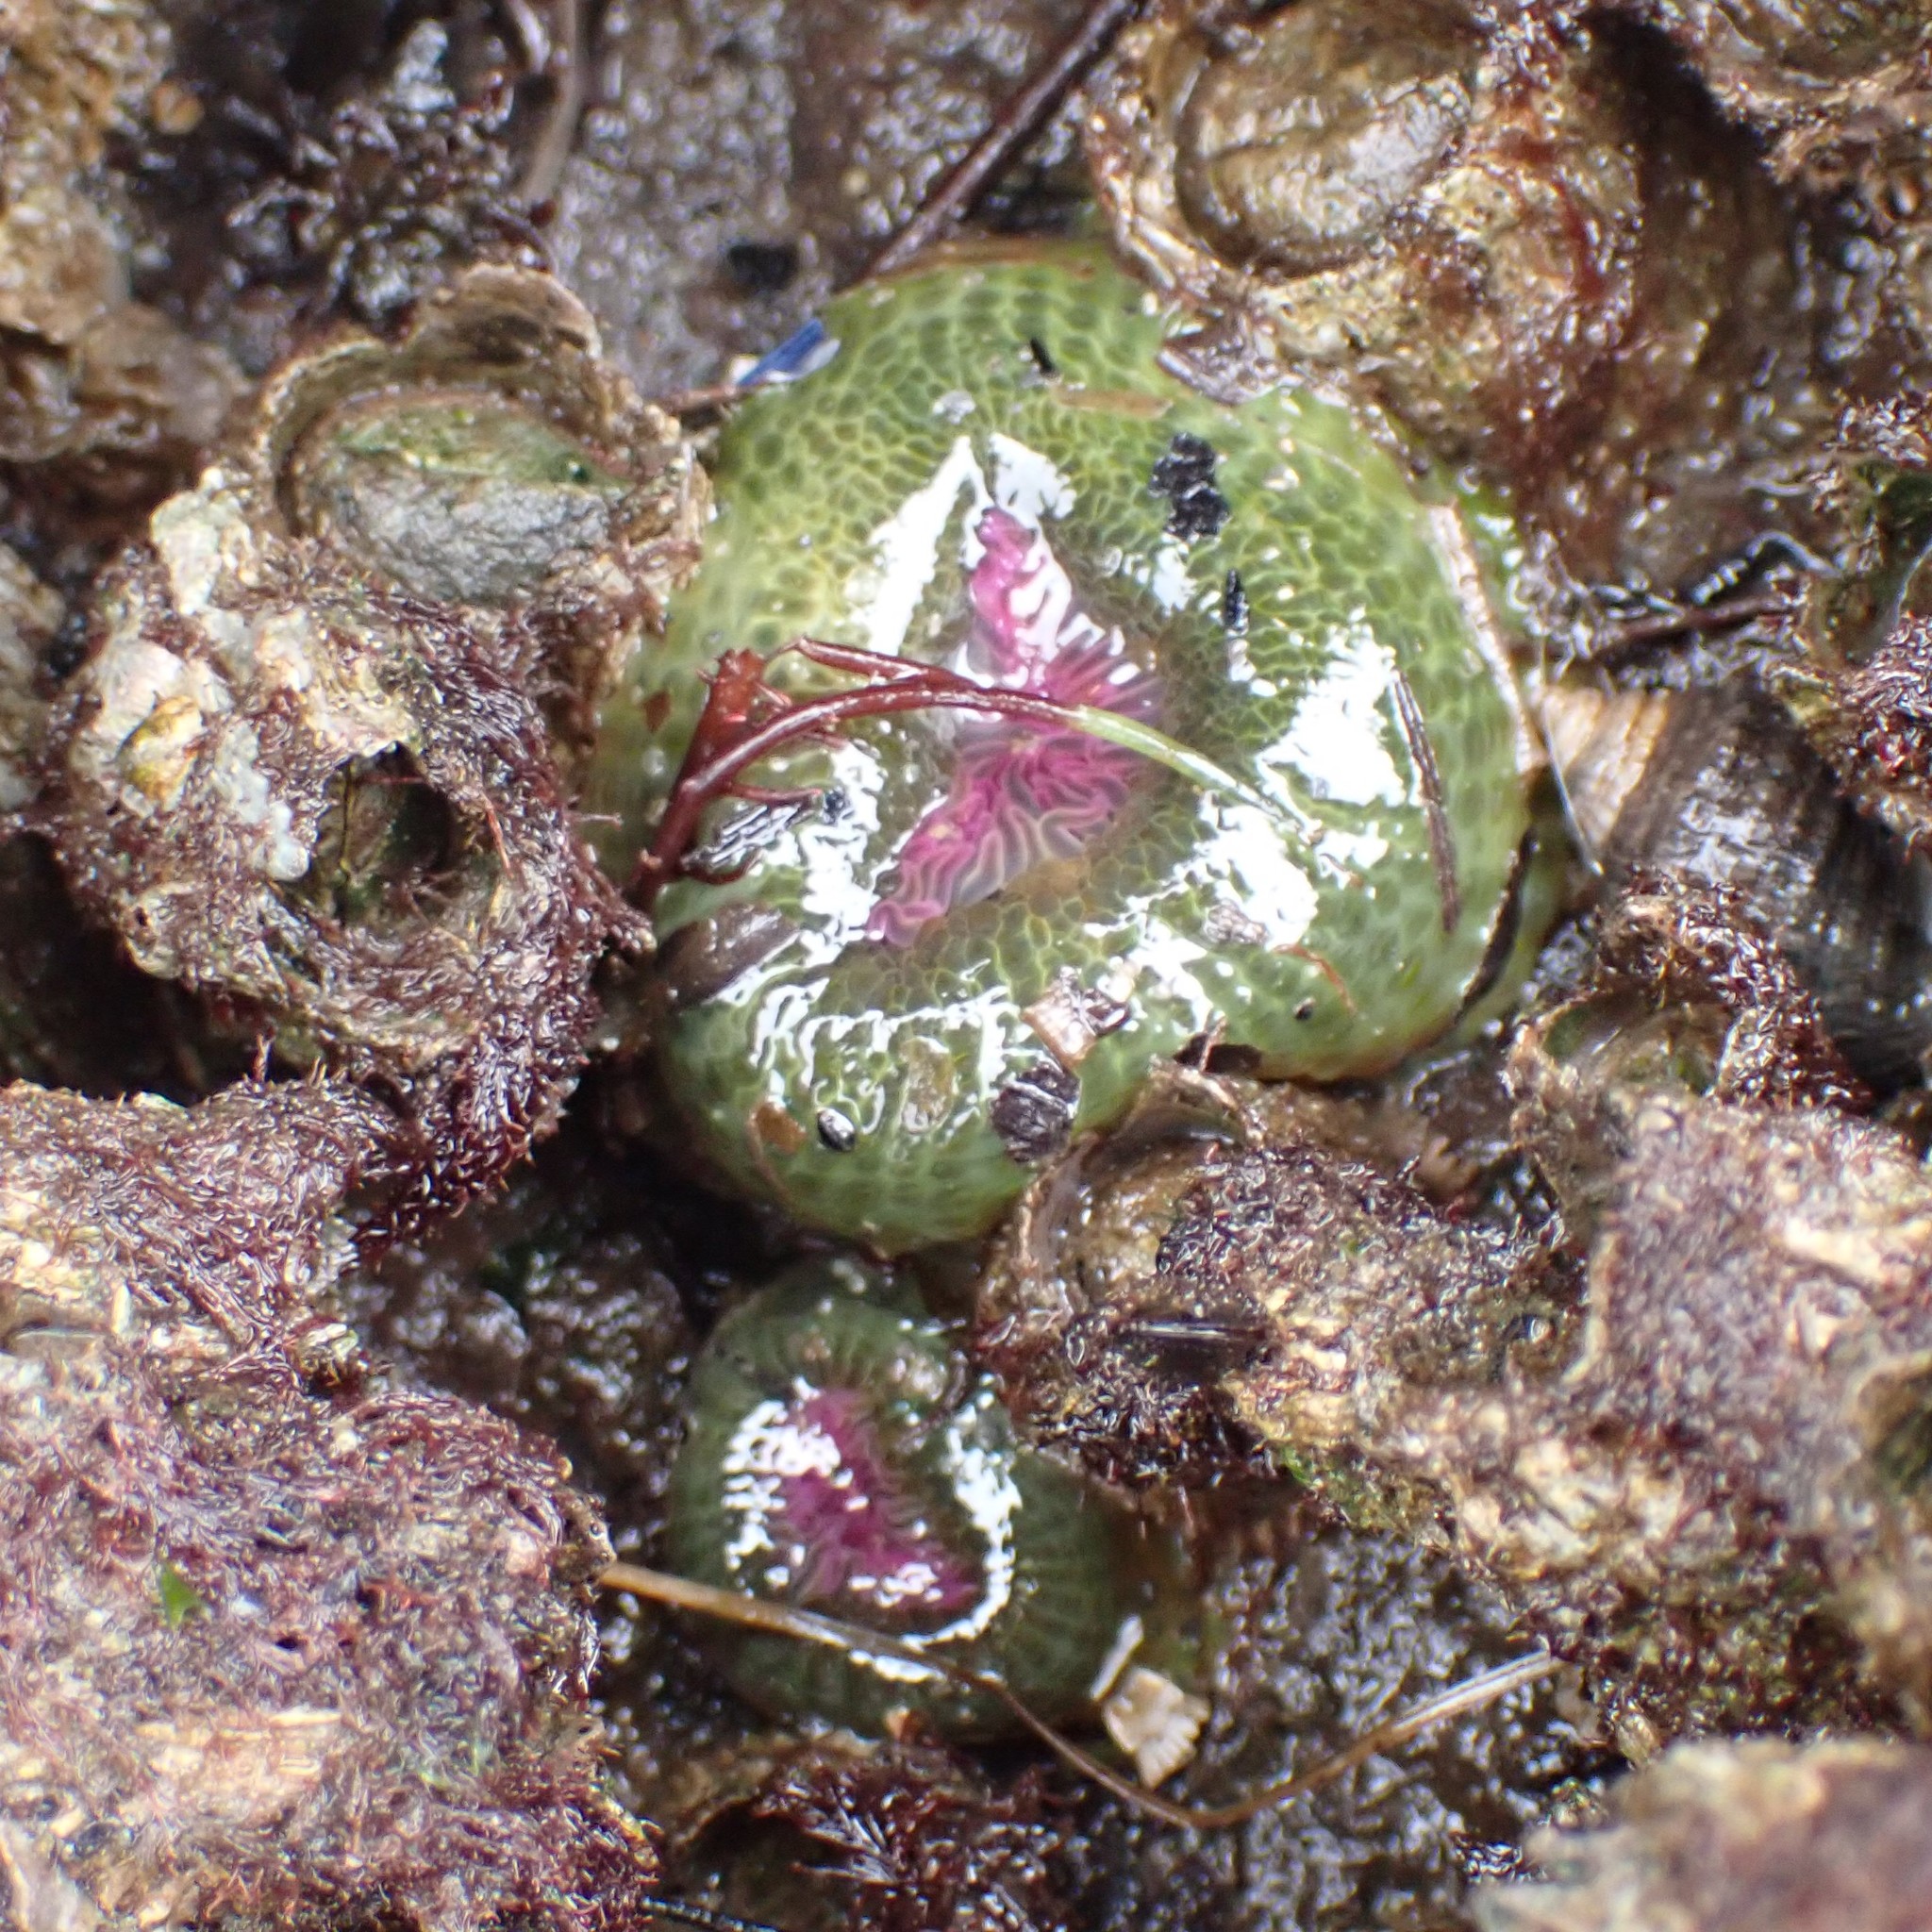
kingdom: Animalia
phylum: Cnidaria
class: Anthozoa
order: Actiniaria
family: Actiniidae
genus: Anthopleura
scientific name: Anthopleura elegantissima
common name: Clonal anemone
